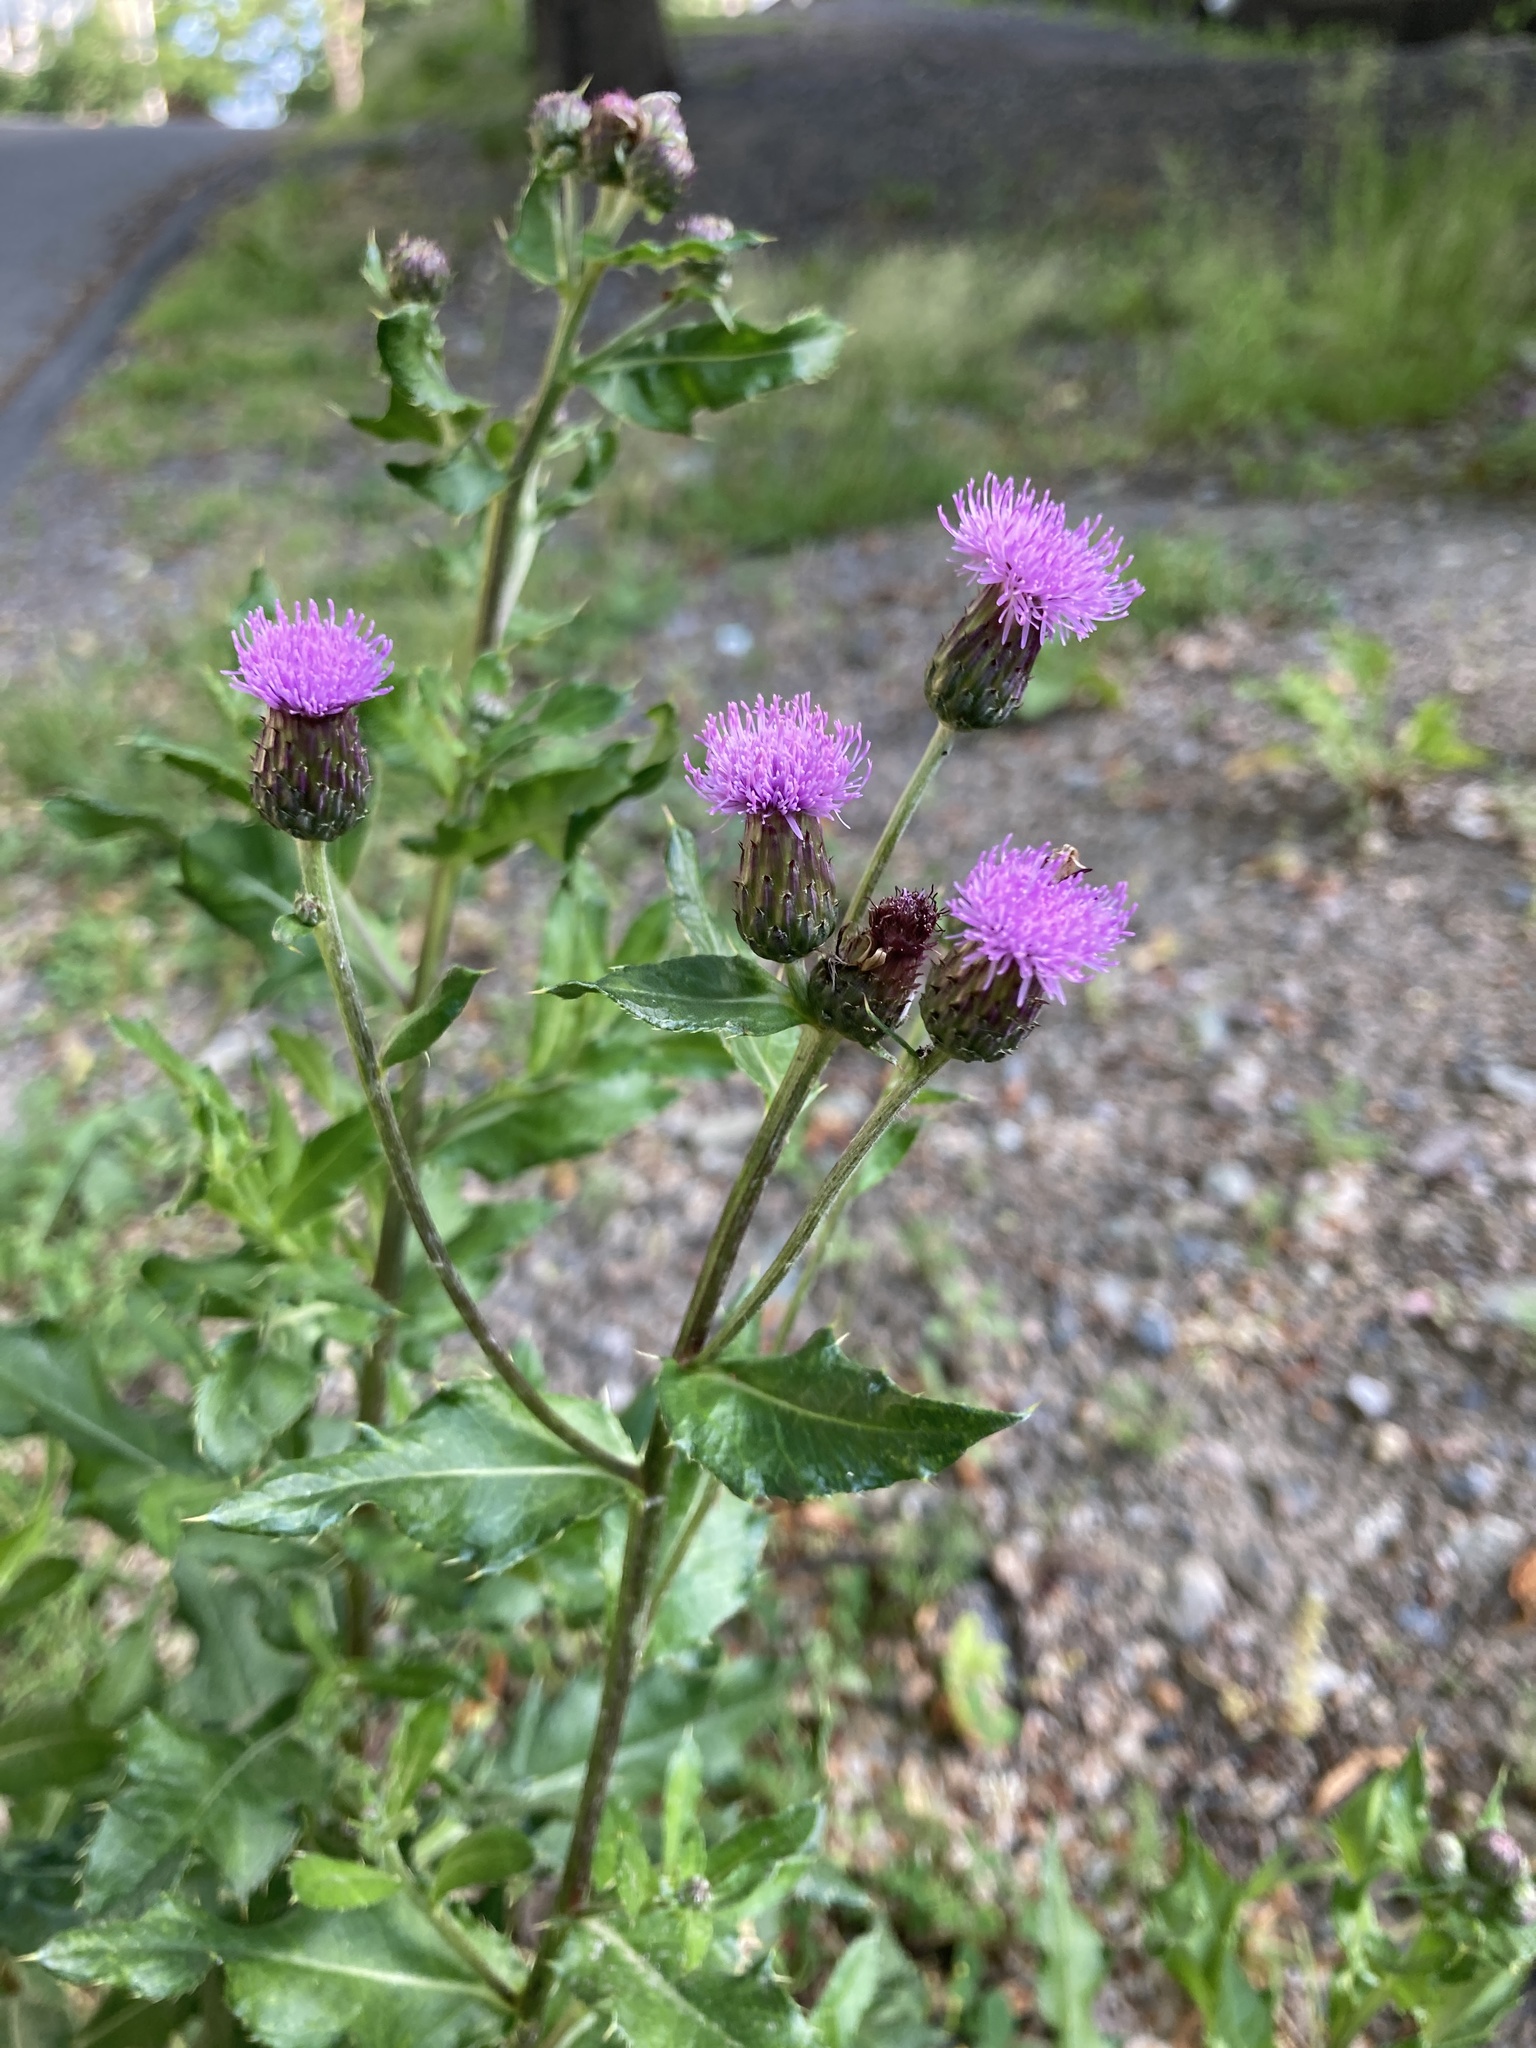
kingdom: Plantae
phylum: Tracheophyta
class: Magnoliopsida
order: Asterales
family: Asteraceae
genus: Cirsium
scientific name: Cirsium arvense
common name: Creeping thistle
